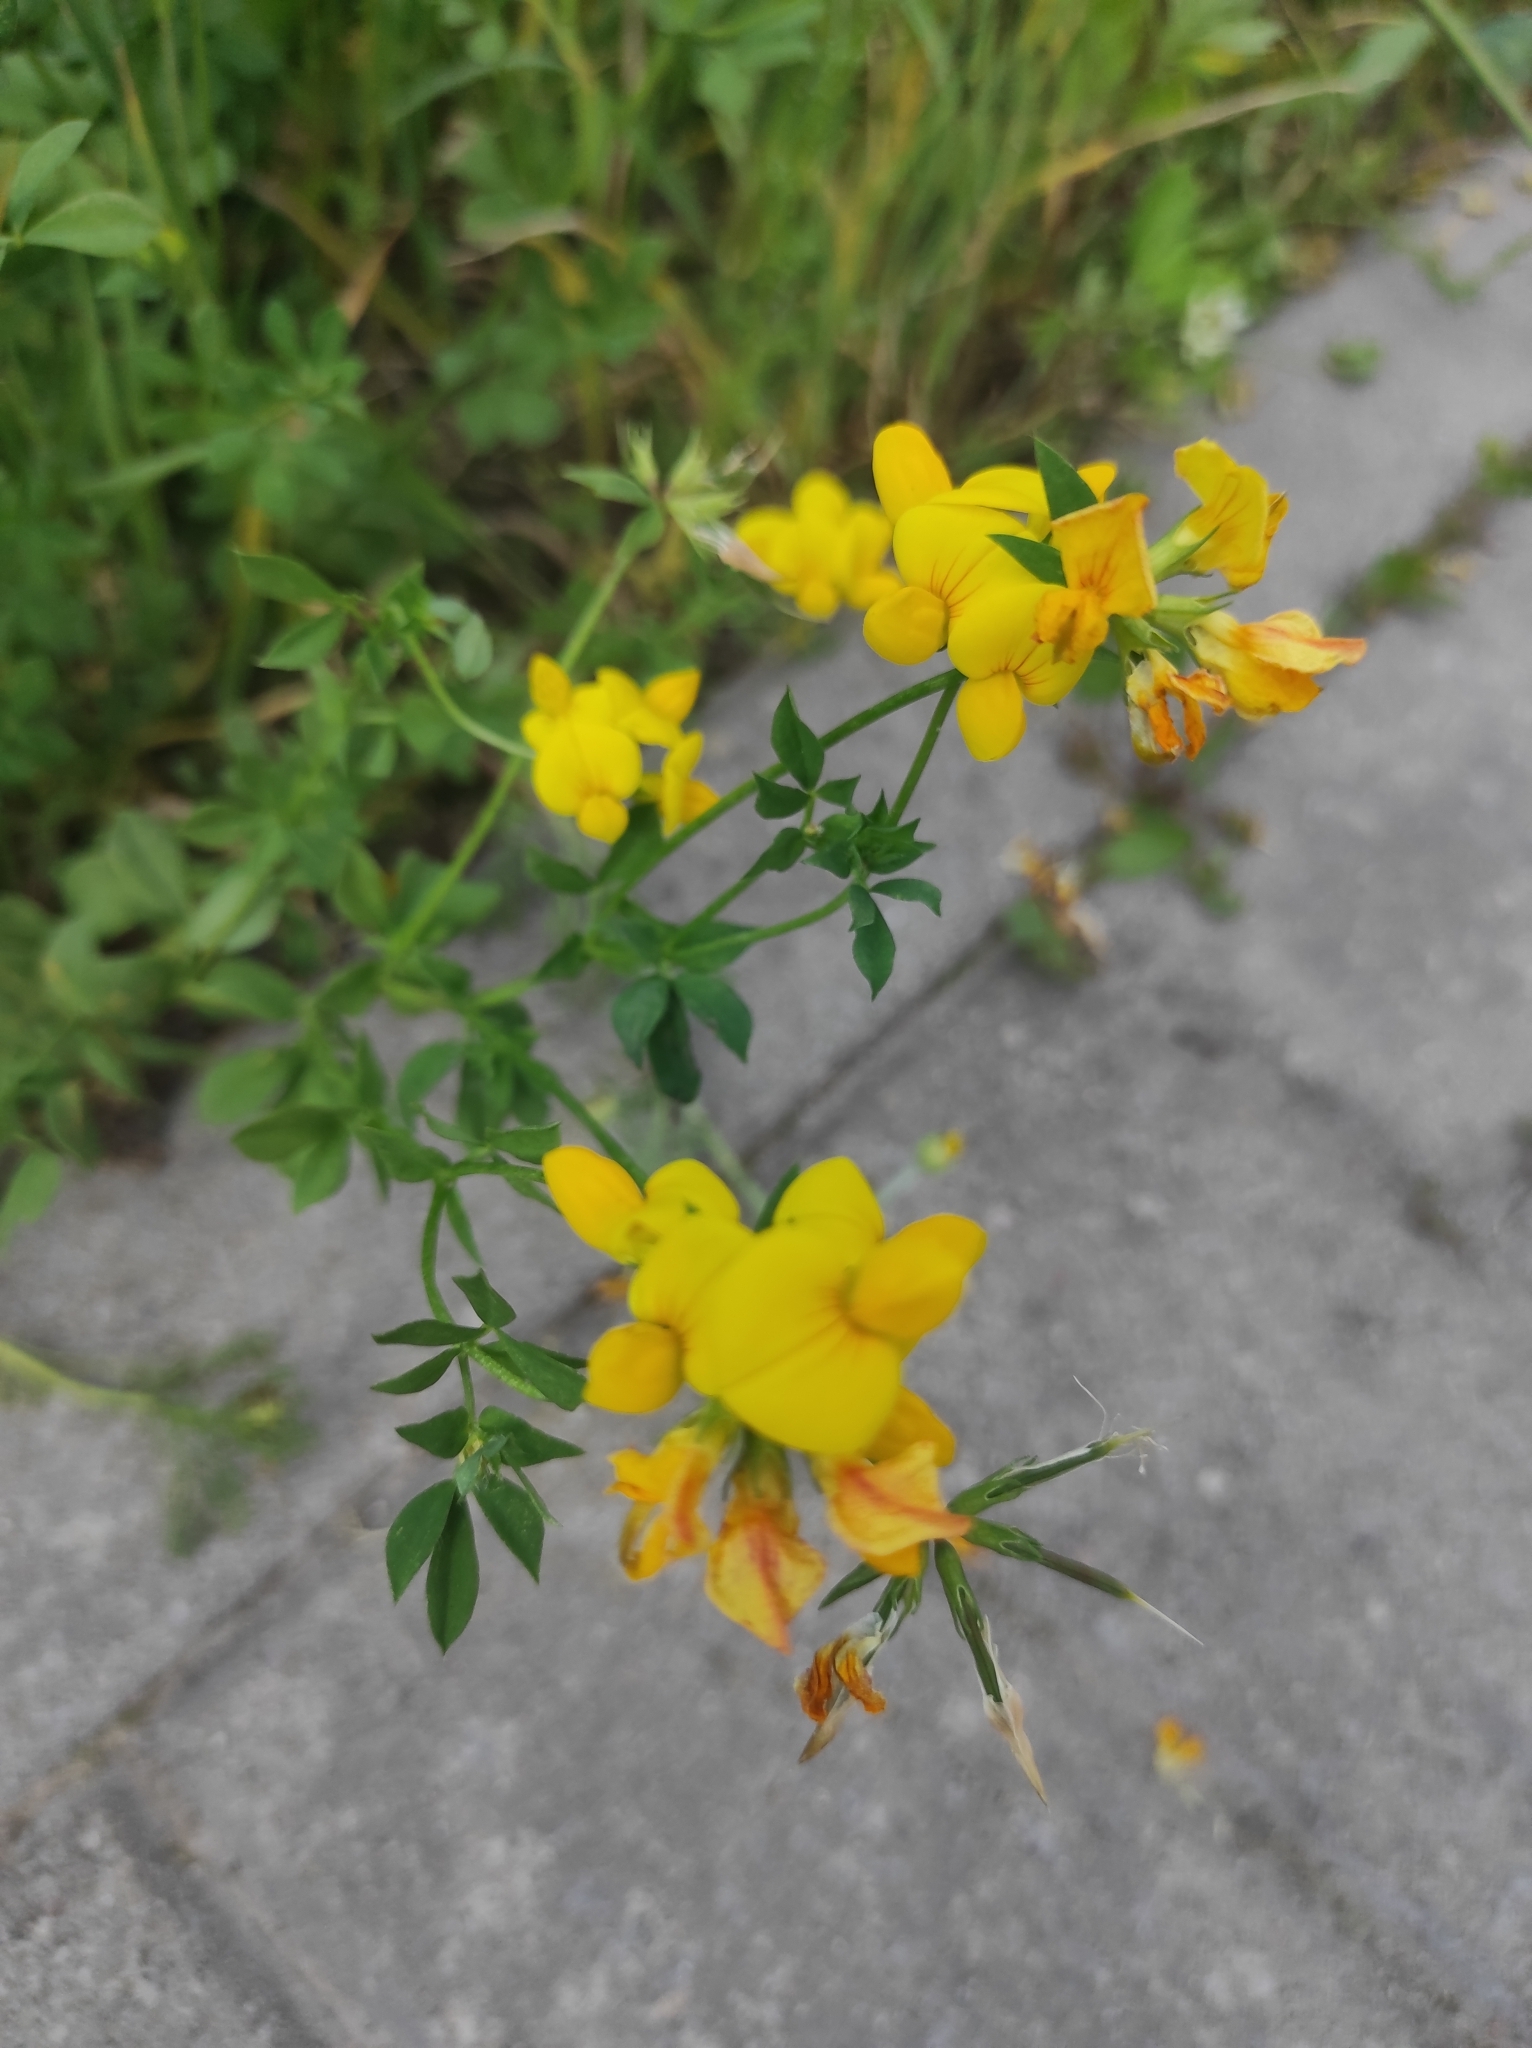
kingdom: Plantae
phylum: Tracheophyta
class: Magnoliopsida
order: Fabales
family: Fabaceae
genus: Lotus
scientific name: Lotus corniculatus
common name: Common bird's-foot-trefoil
